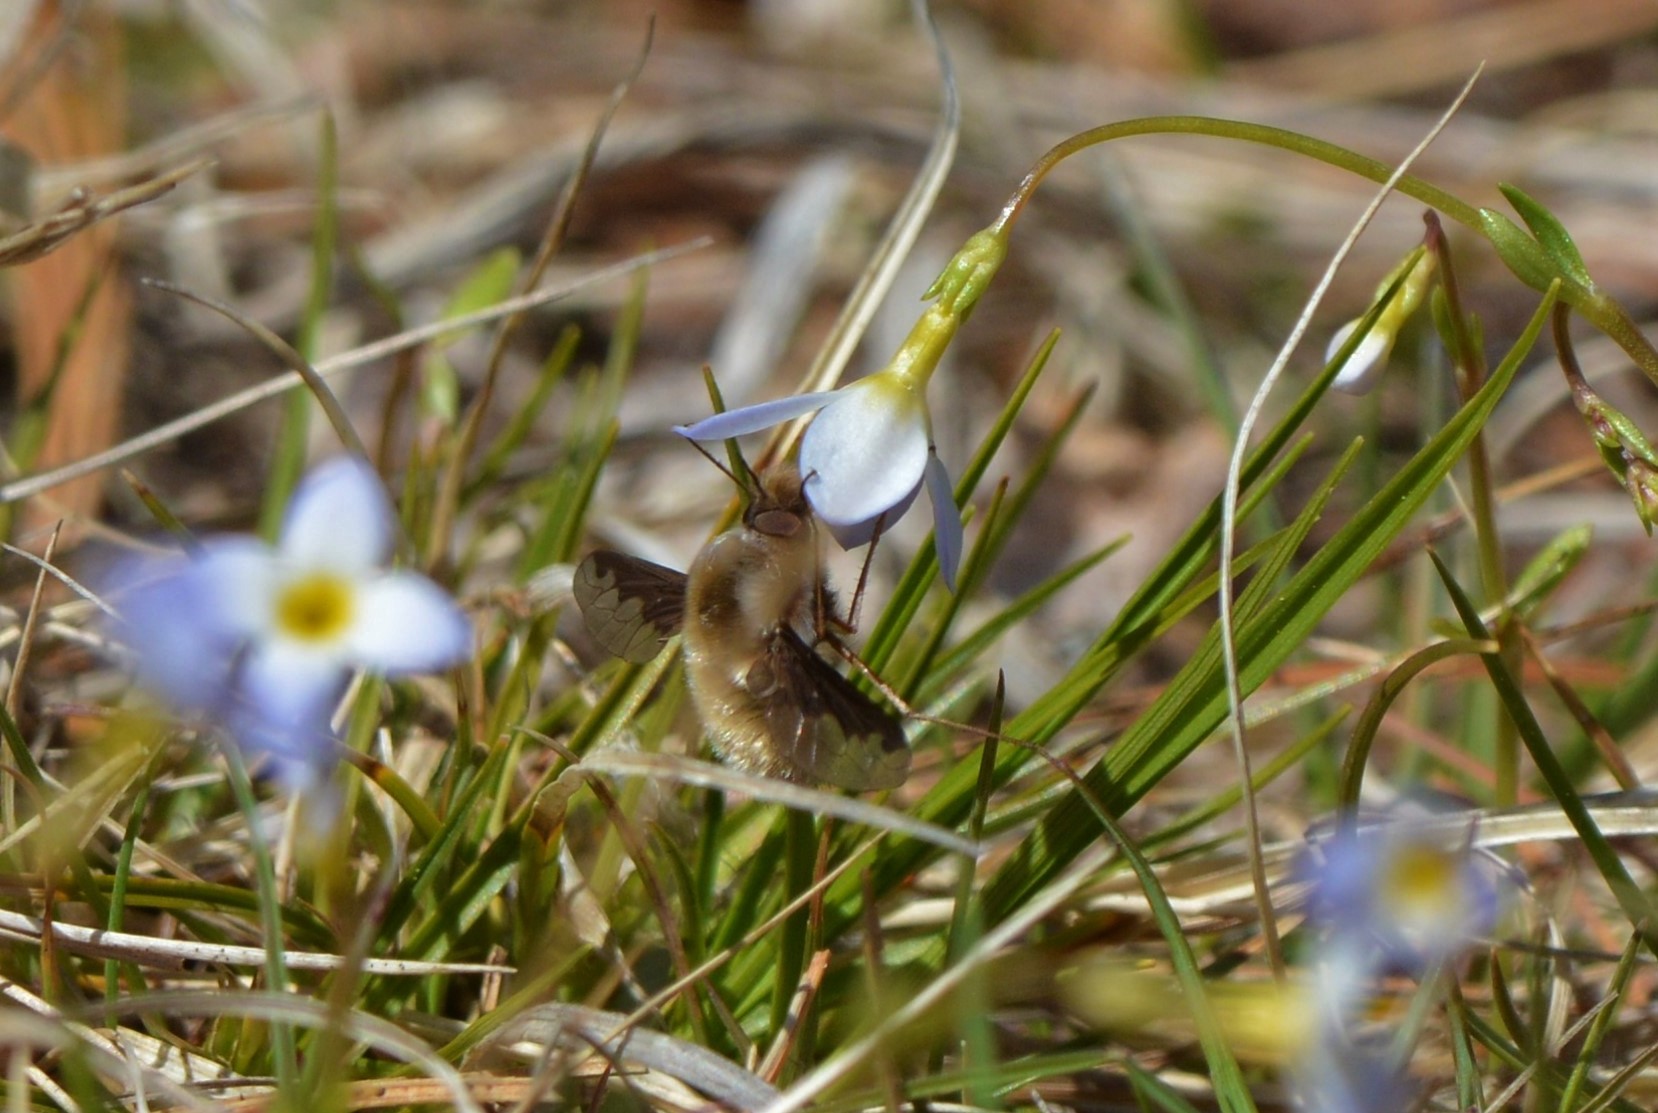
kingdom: Animalia
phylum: Arthropoda
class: Insecta
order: Diptera
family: Bombyliidae
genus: Bombylius
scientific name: Bombylius major
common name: Bee fly
